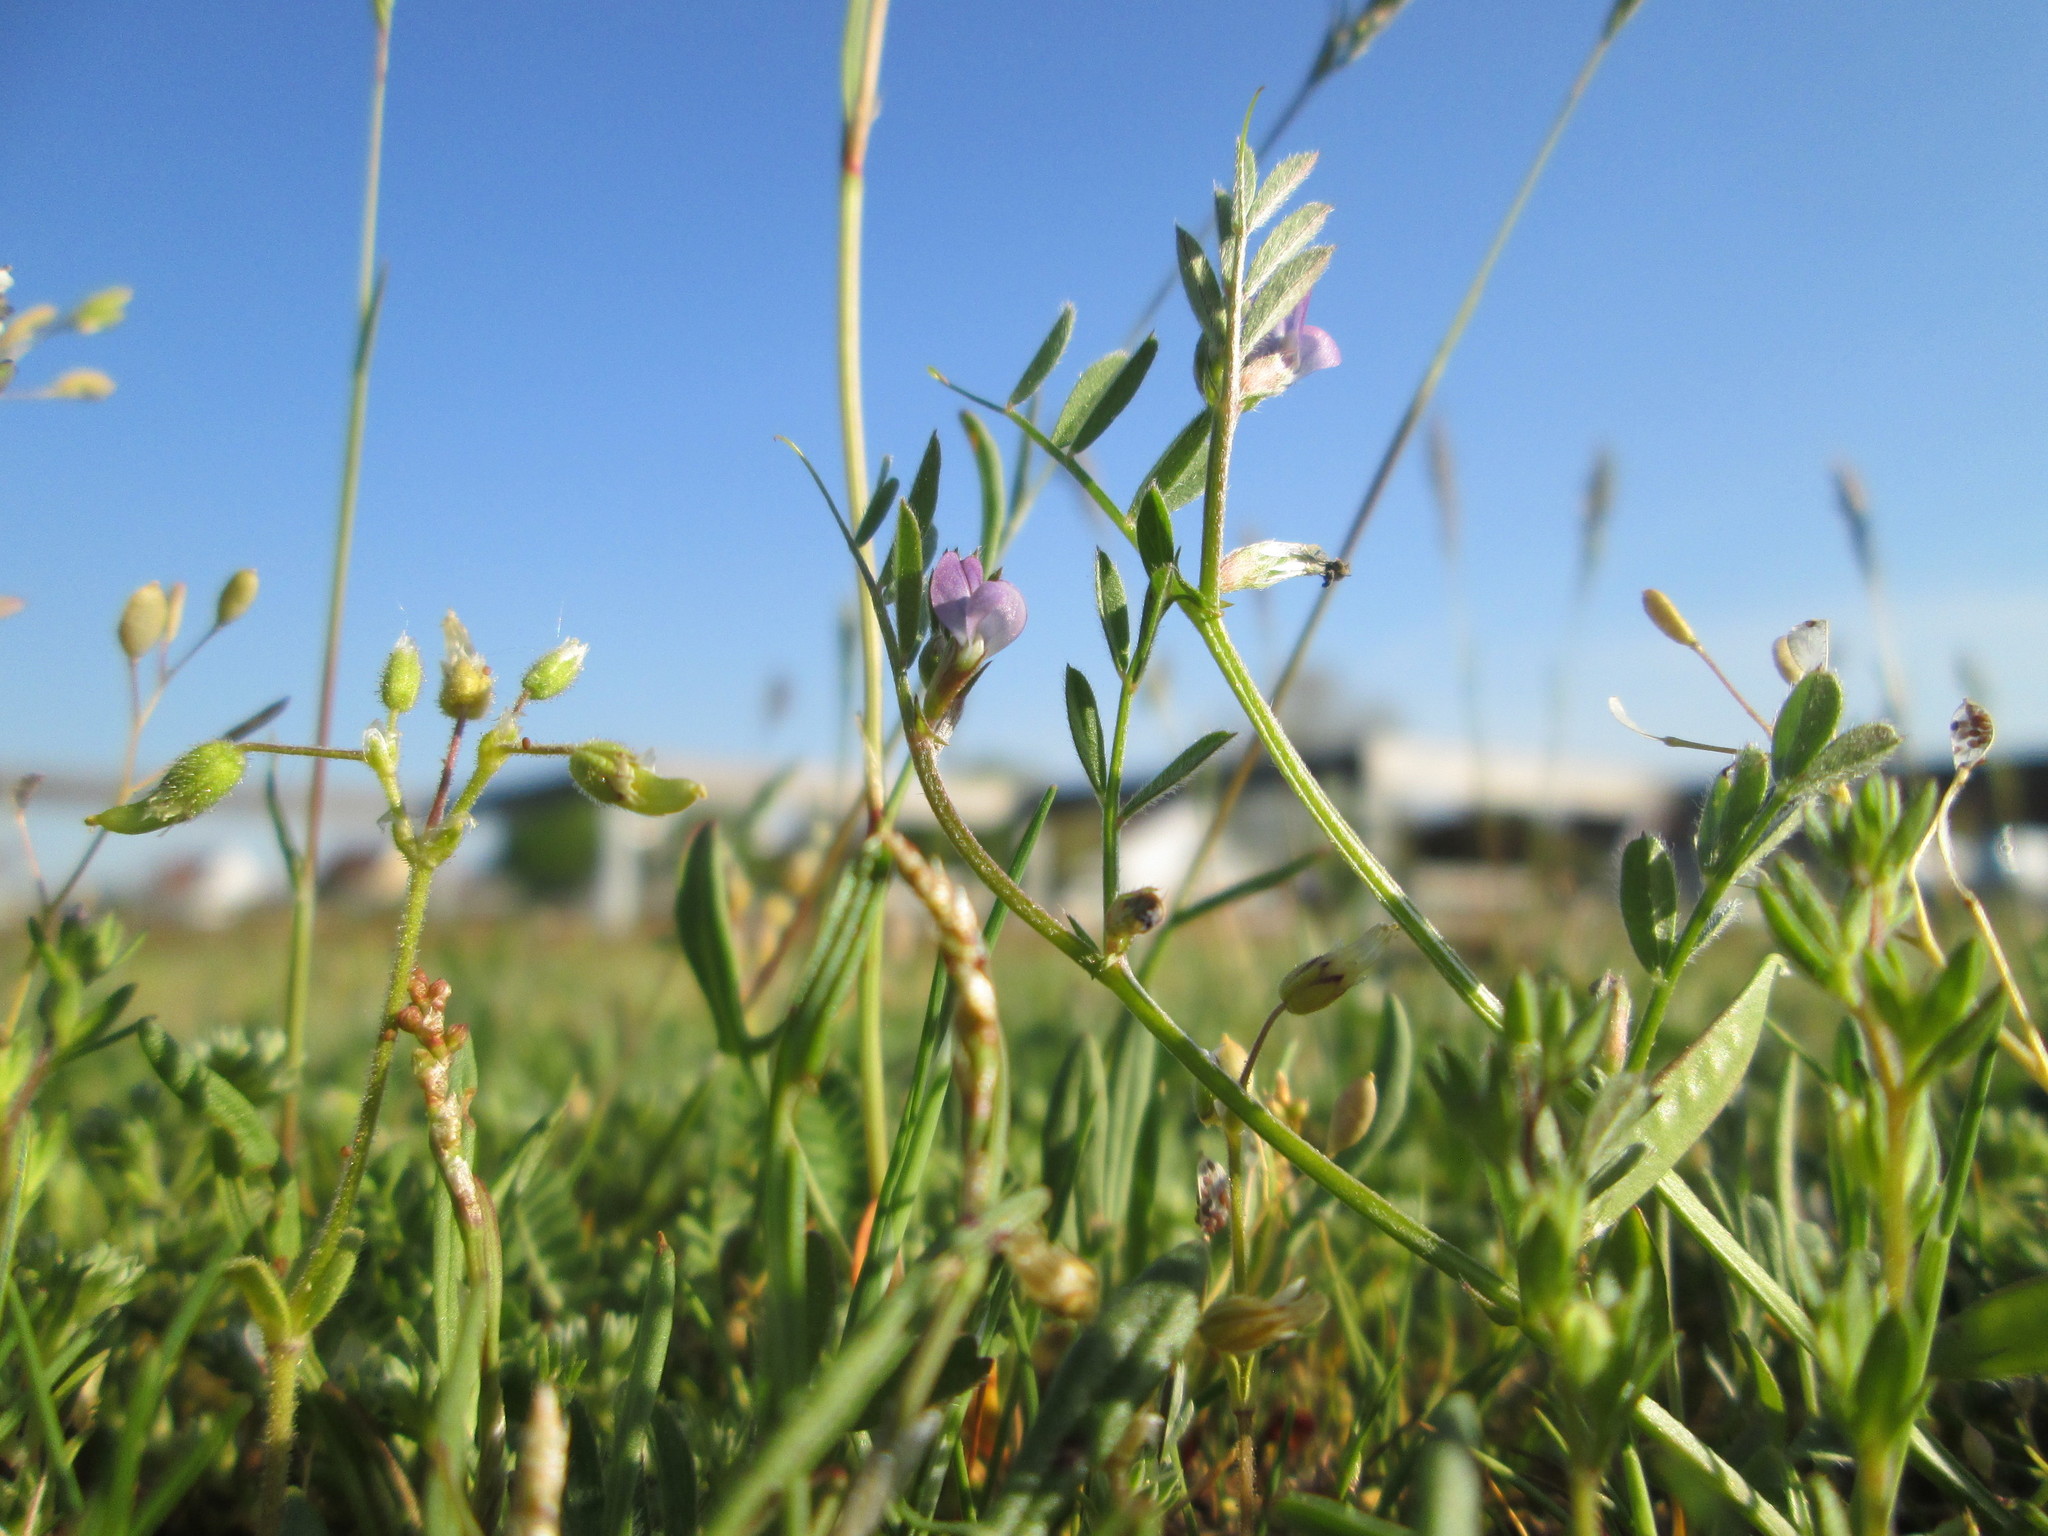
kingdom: Plantae
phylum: Tracheophyta
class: Magnoliopsida
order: Fabales
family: Fabaceae
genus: Vicia
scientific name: Vicia lathyroides
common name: Spring vetch
